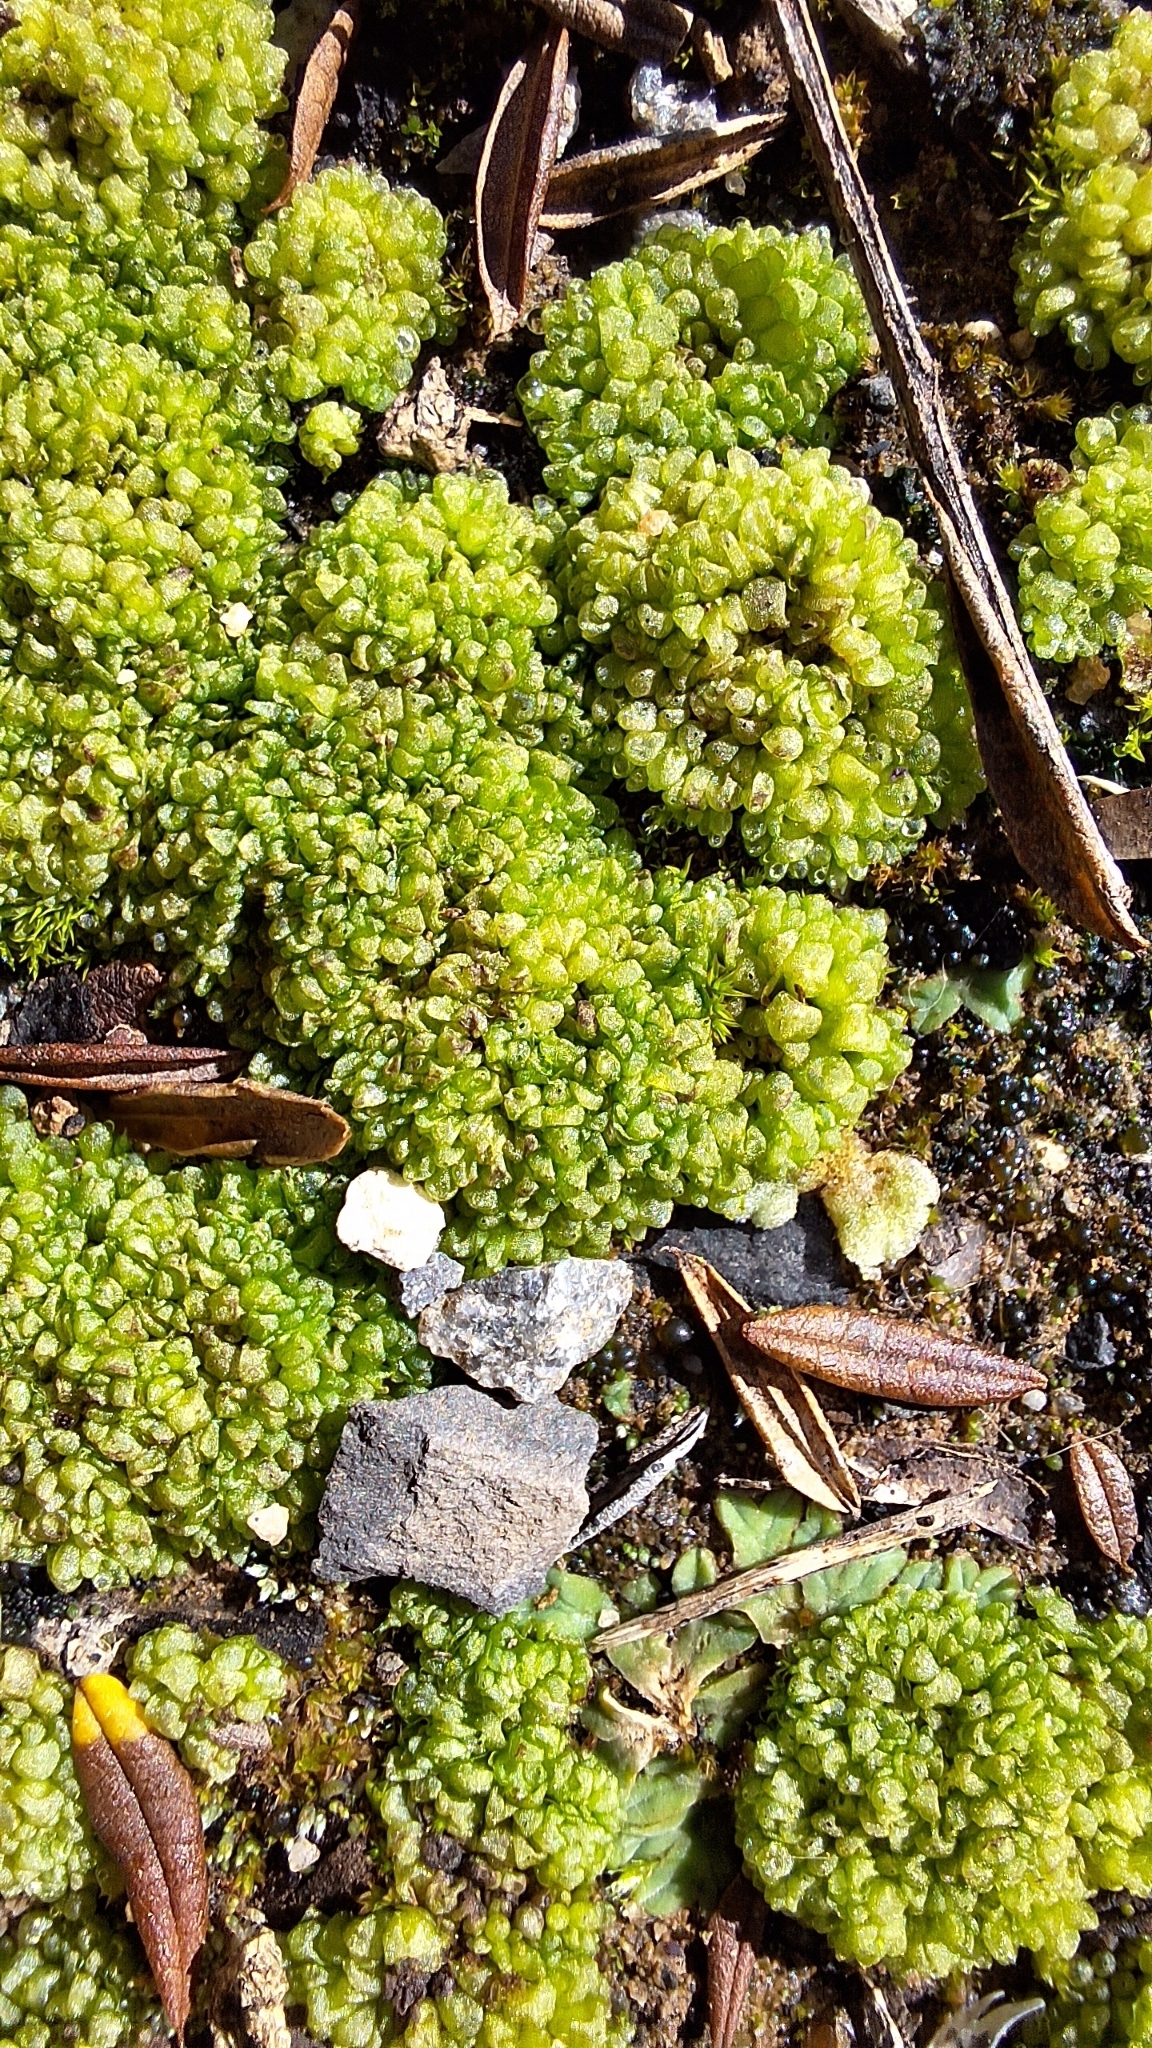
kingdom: Plantae
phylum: Marchantiophyta
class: Marchantiopsida
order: Sphaerocarpales
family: Sphaerocarpaceae
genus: Sphaerocarpos
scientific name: Sphaerocarpos texanus
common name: Texas balloonwort
